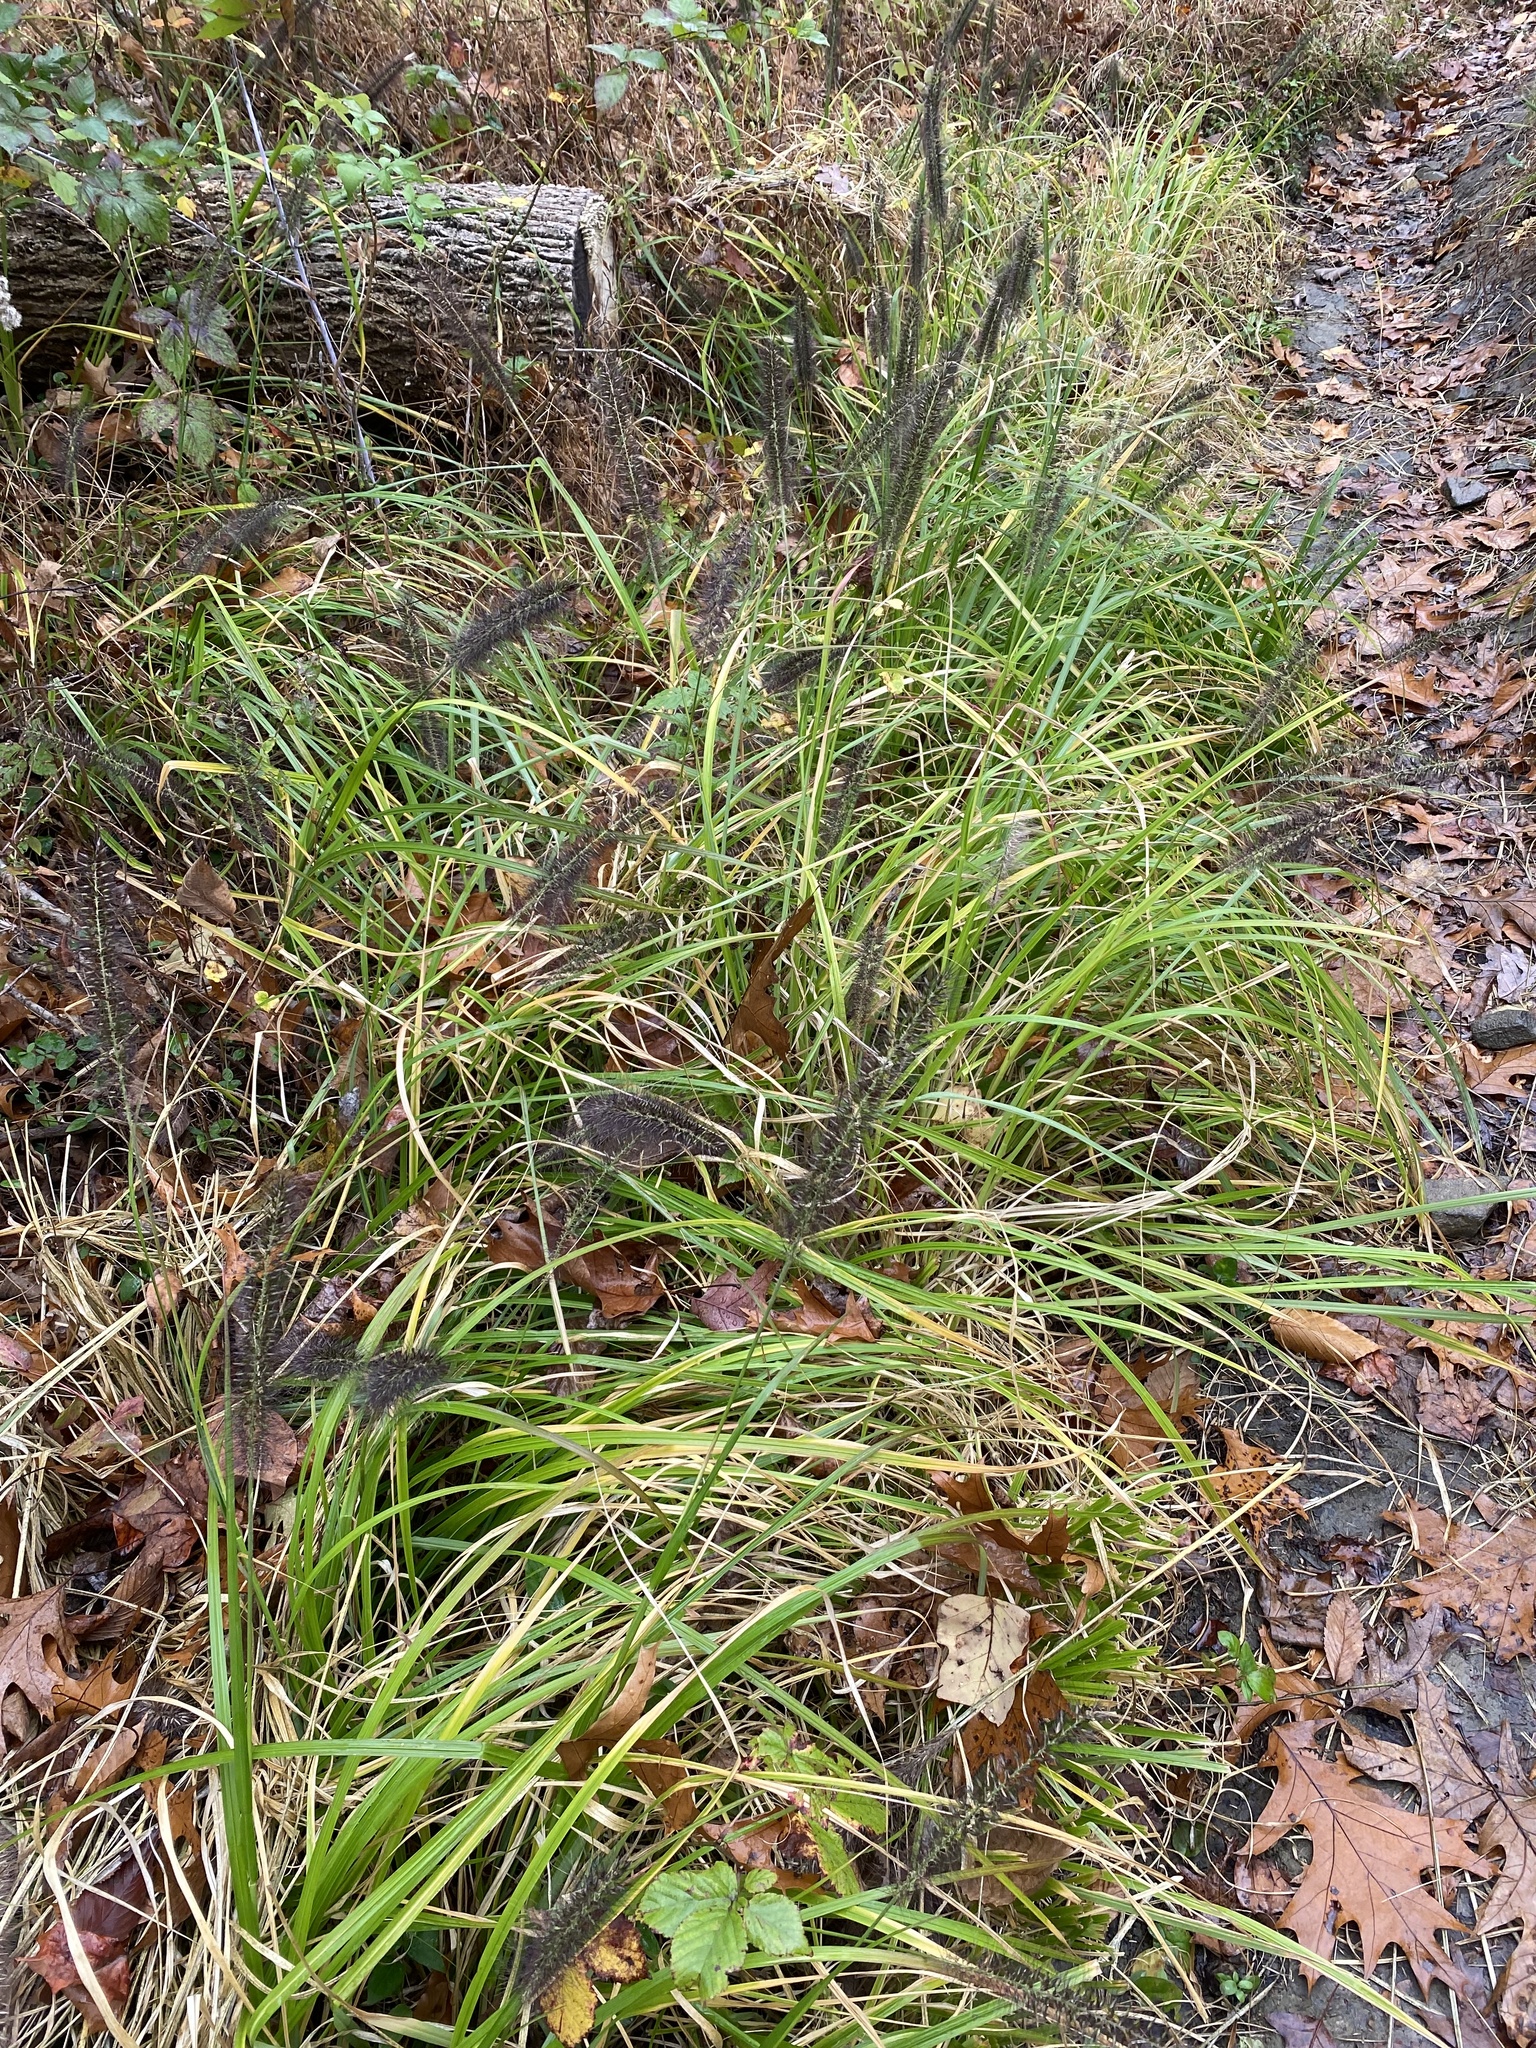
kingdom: Plantae
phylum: Tracheophyta
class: Liliopsida
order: Poales
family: Poaceae
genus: Cenchrus
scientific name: Cenchrus alopecuroides
